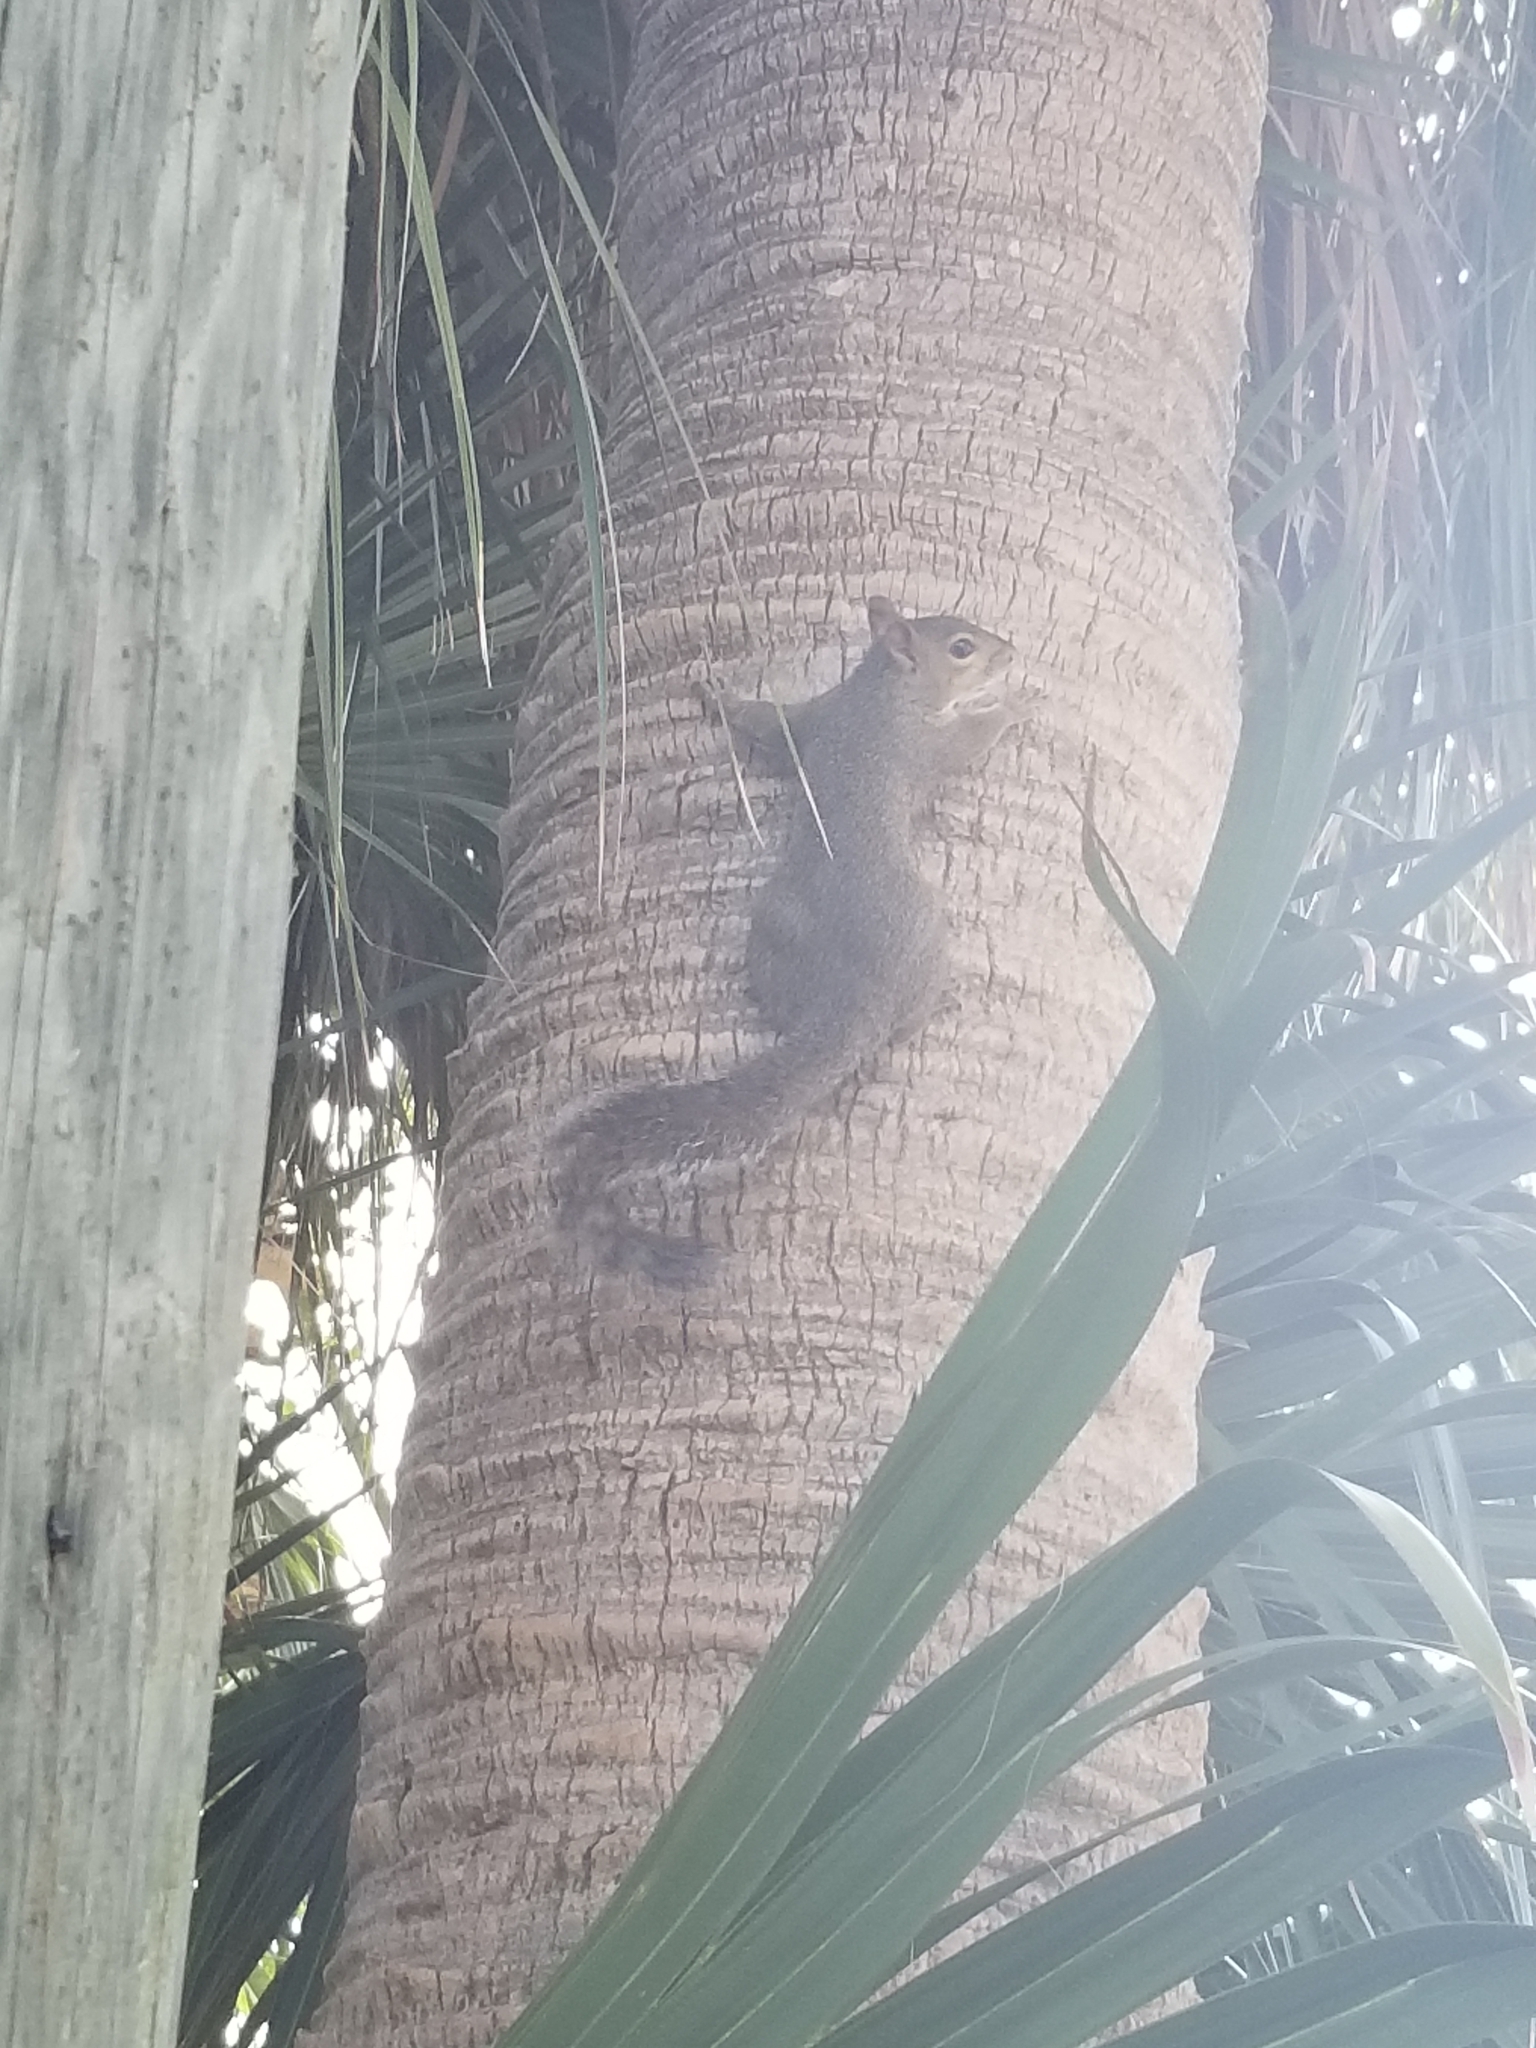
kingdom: Animalia
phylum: Chordata
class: Mammalia
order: Rodentia
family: Sciuridae
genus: Sciurus
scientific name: Sciurus carolinensis
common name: Eastern gray squirrel
